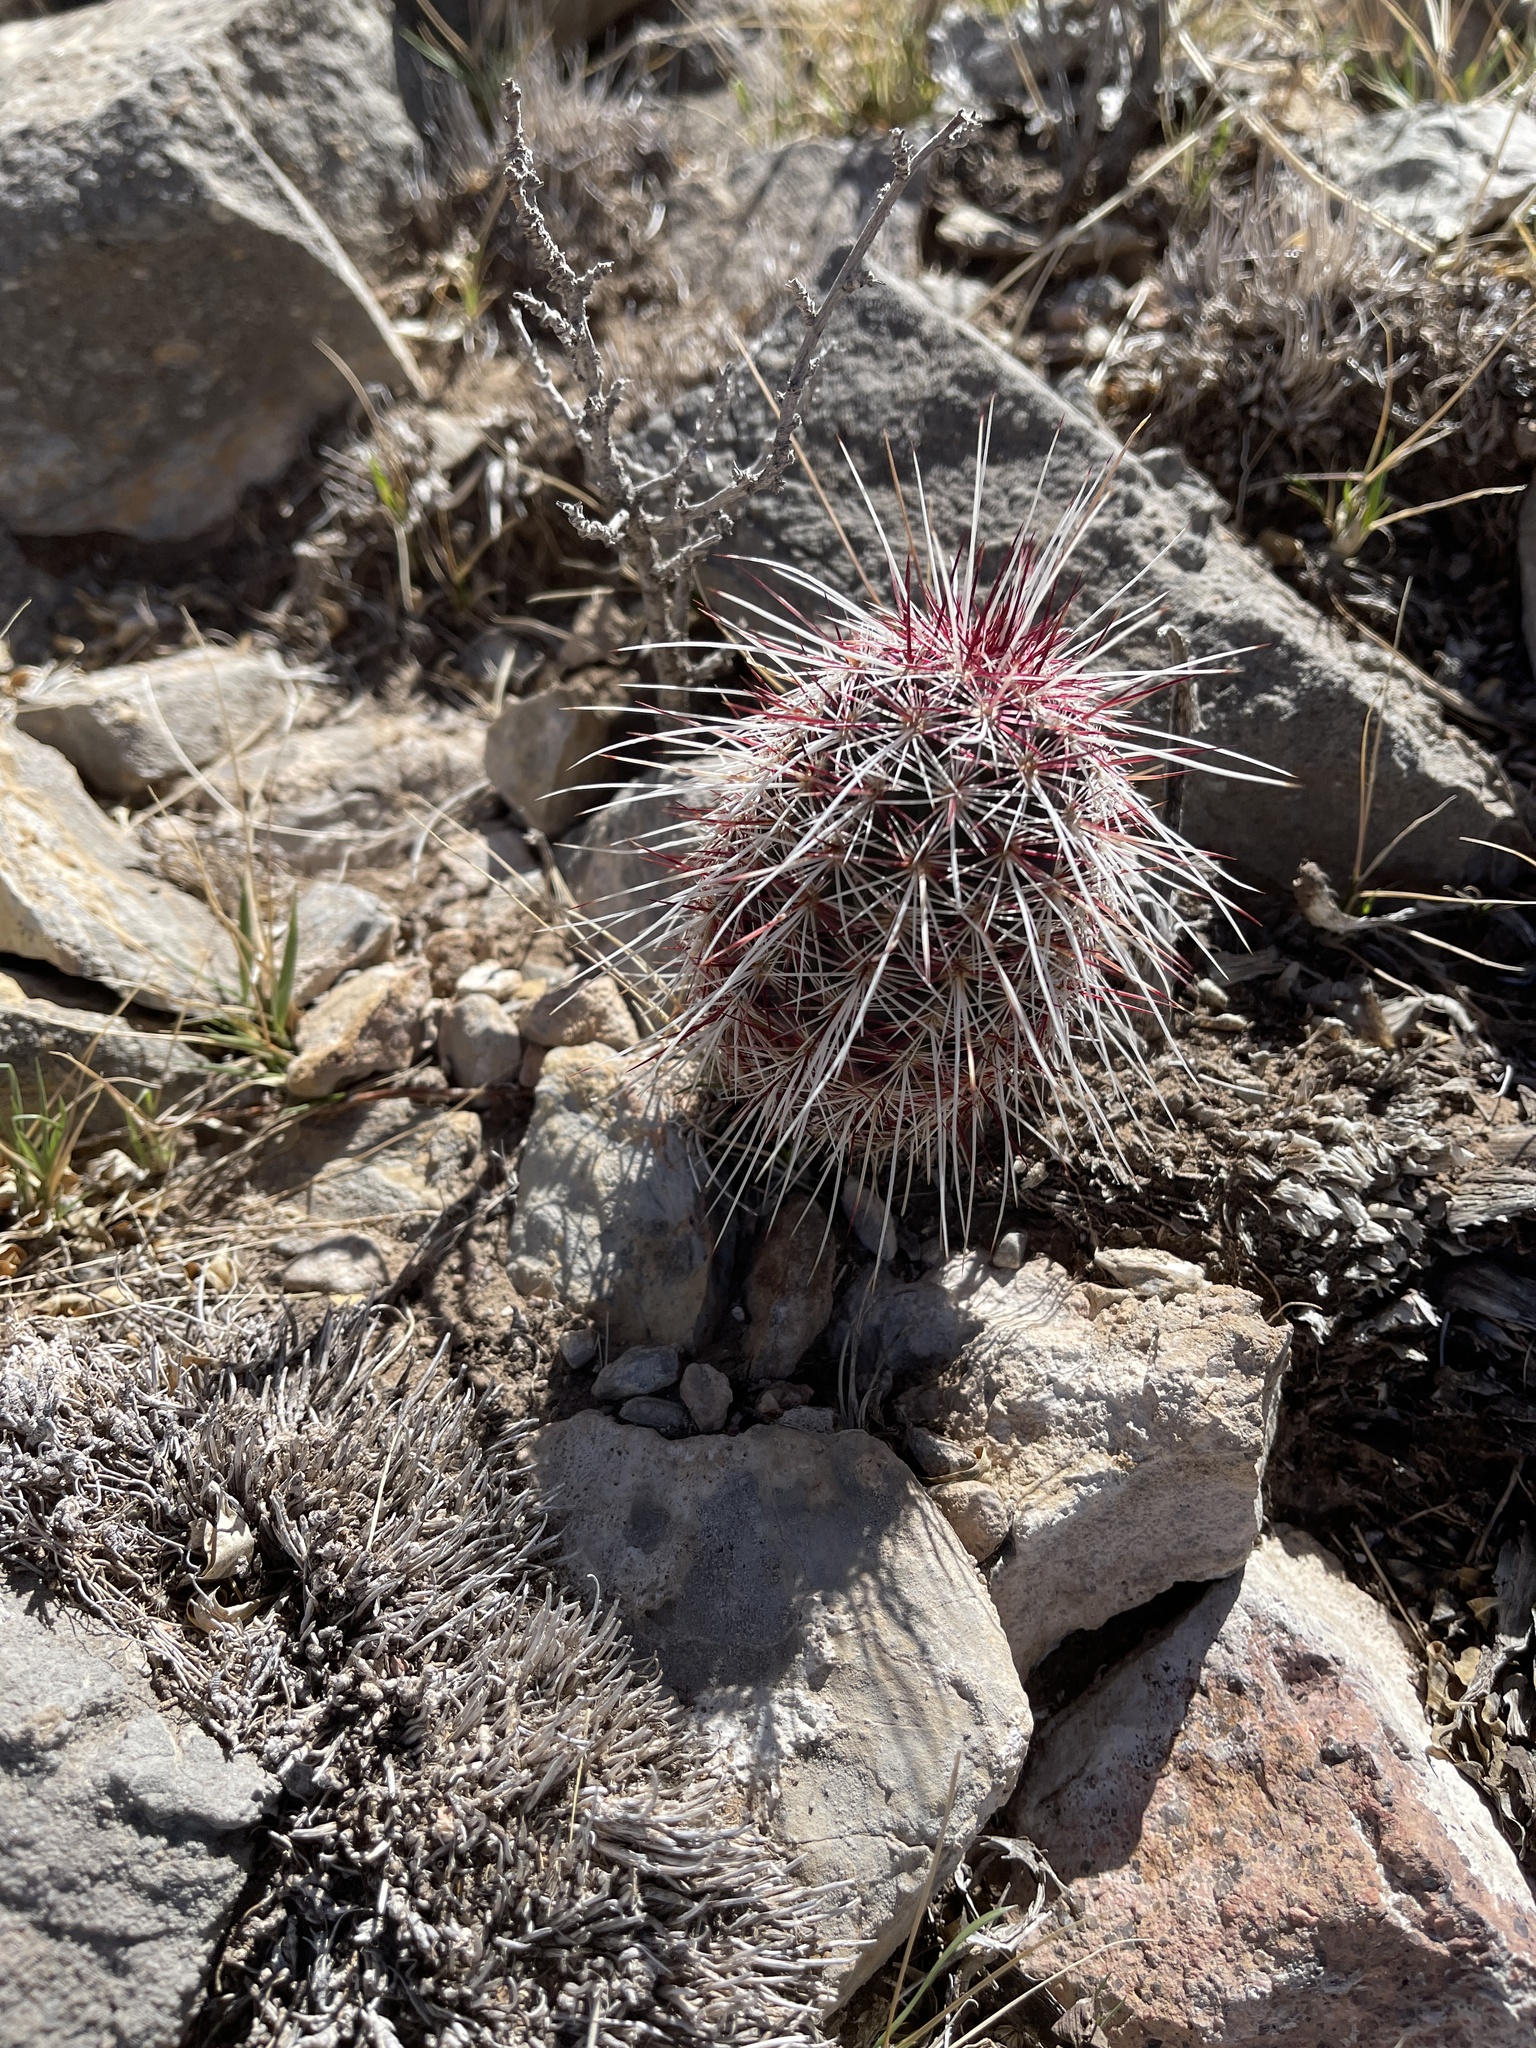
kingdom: Plantae
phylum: Tracheophyta
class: Magnoliopsida
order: Caryophyllales
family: Cactaceae
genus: Echinocereus
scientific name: Echinocereus viridiflorus
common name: Nylon hedgehog cactus
